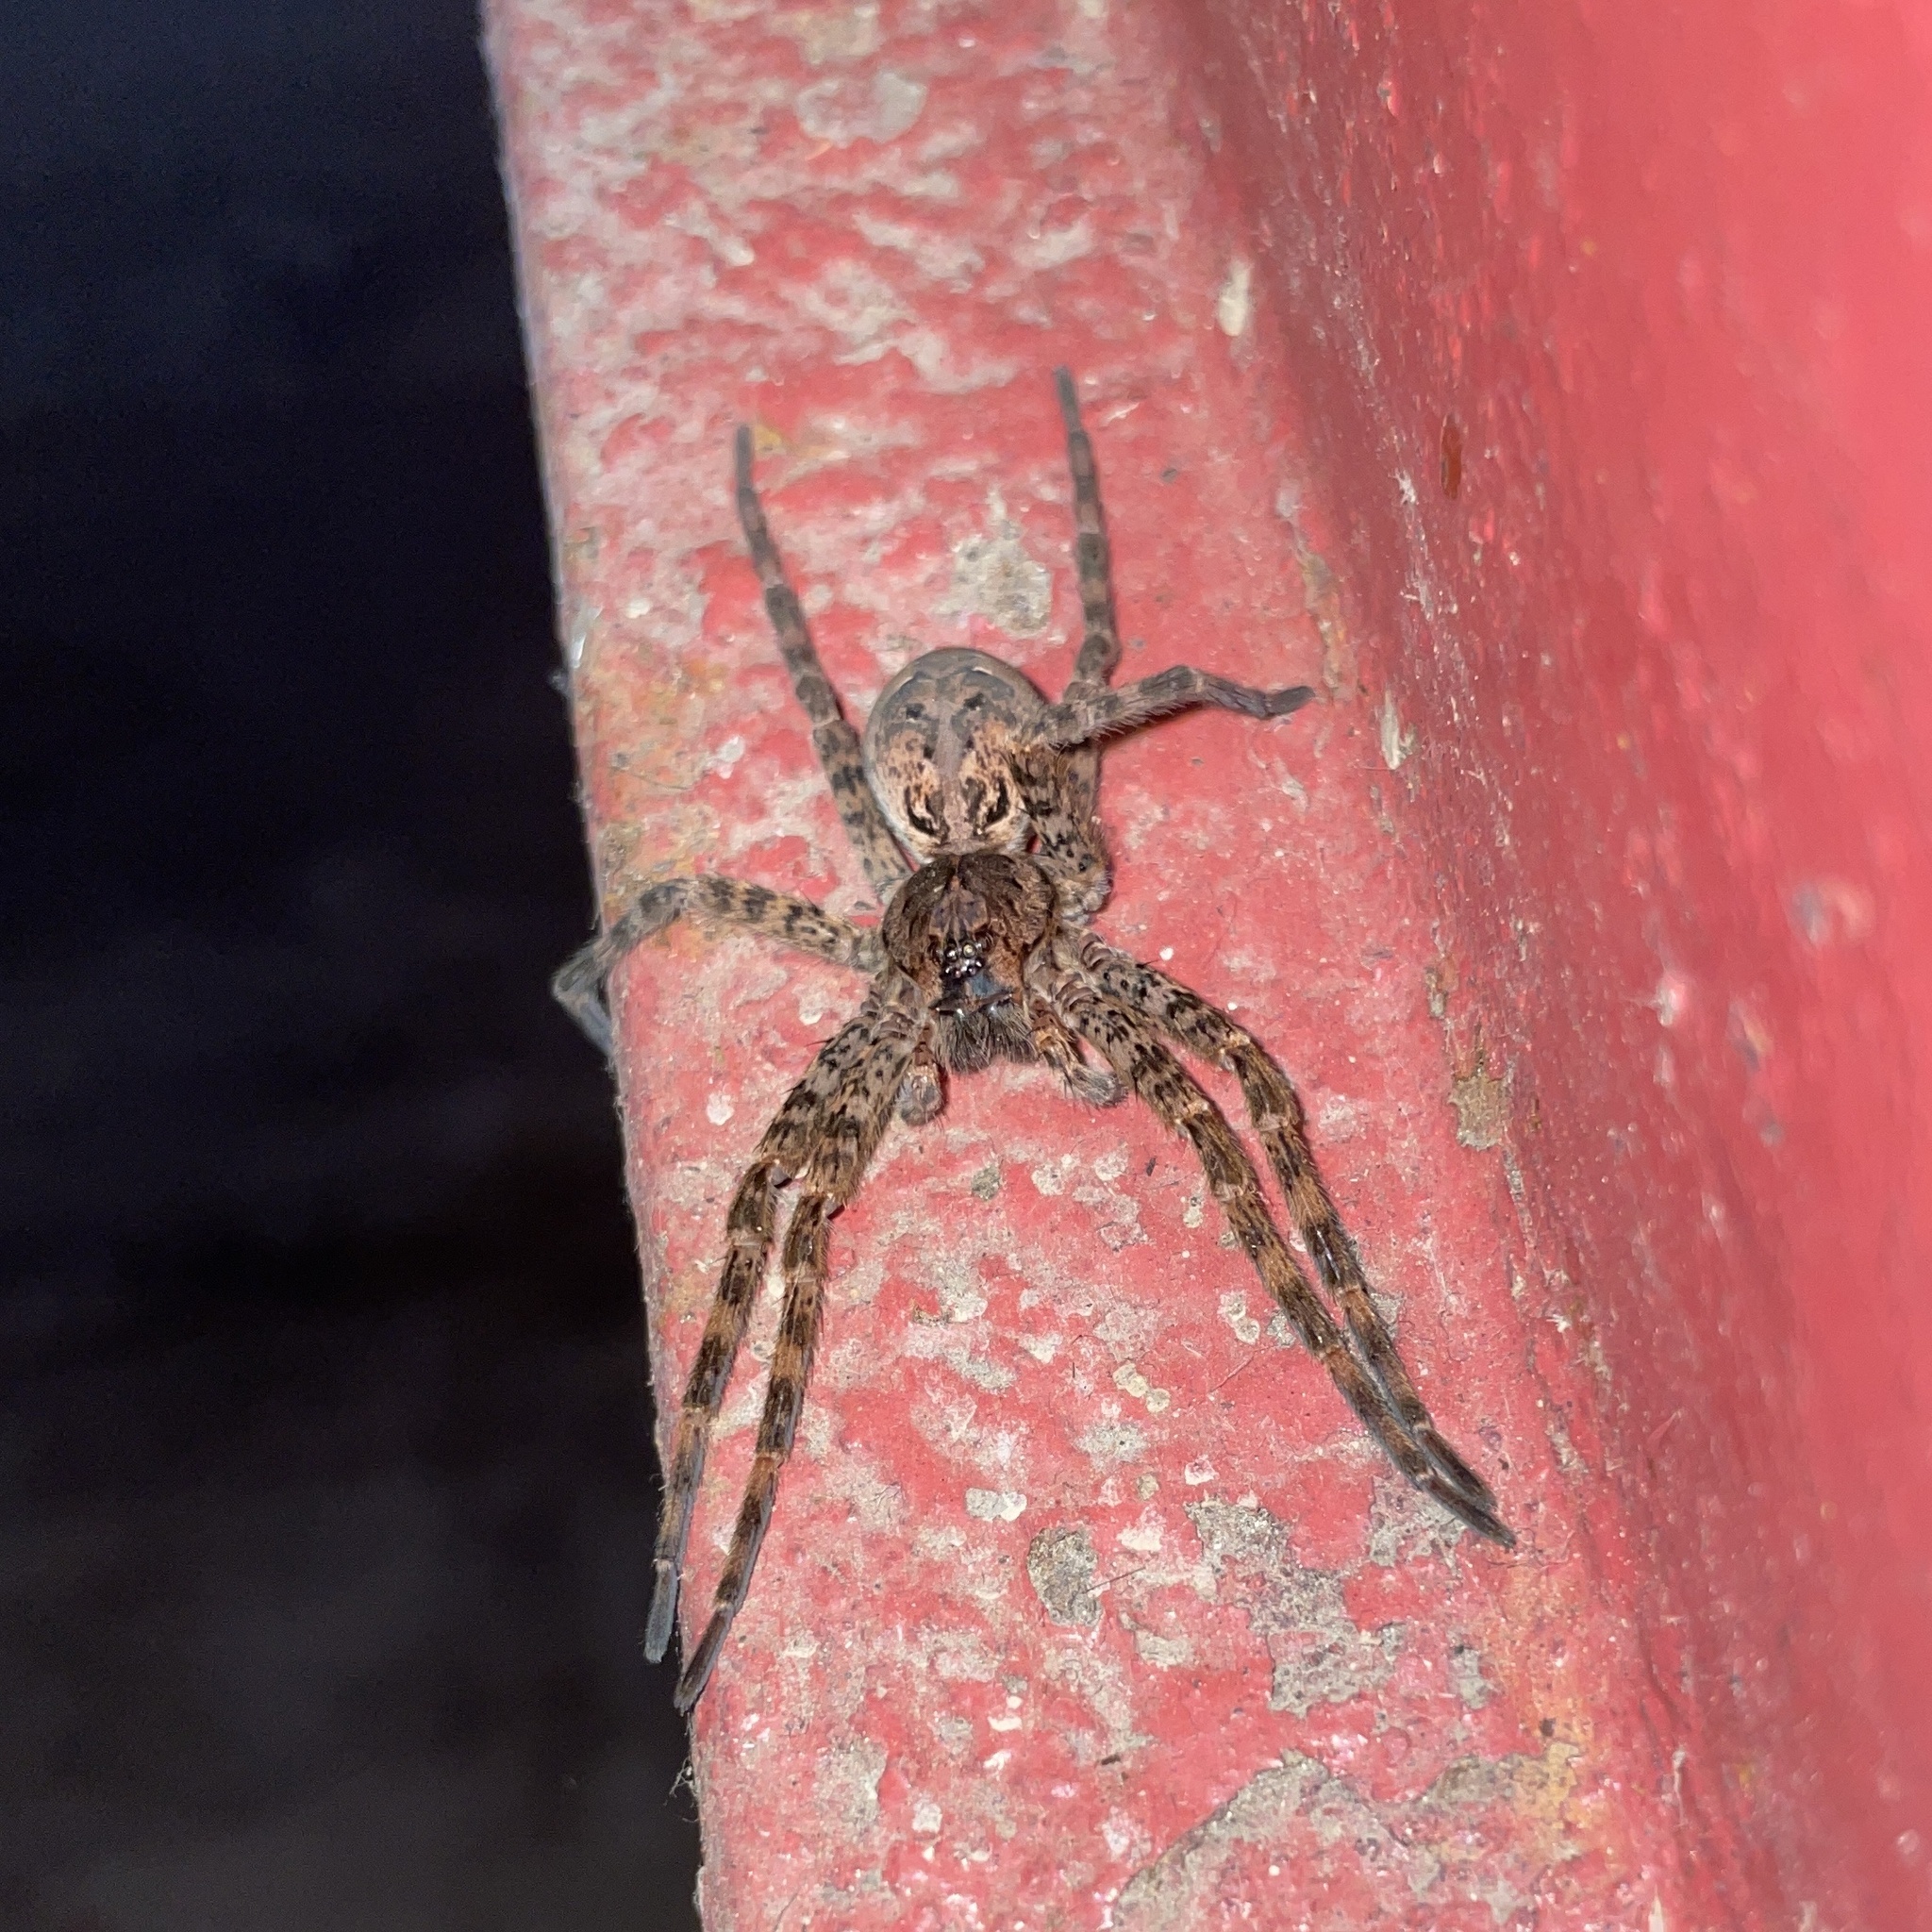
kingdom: Animalia
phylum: Arthropoda
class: Arachnida
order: Araneae
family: Pisauridae
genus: Dolomedes
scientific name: Dolomedes tenebrosus
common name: Dark fishing spider
